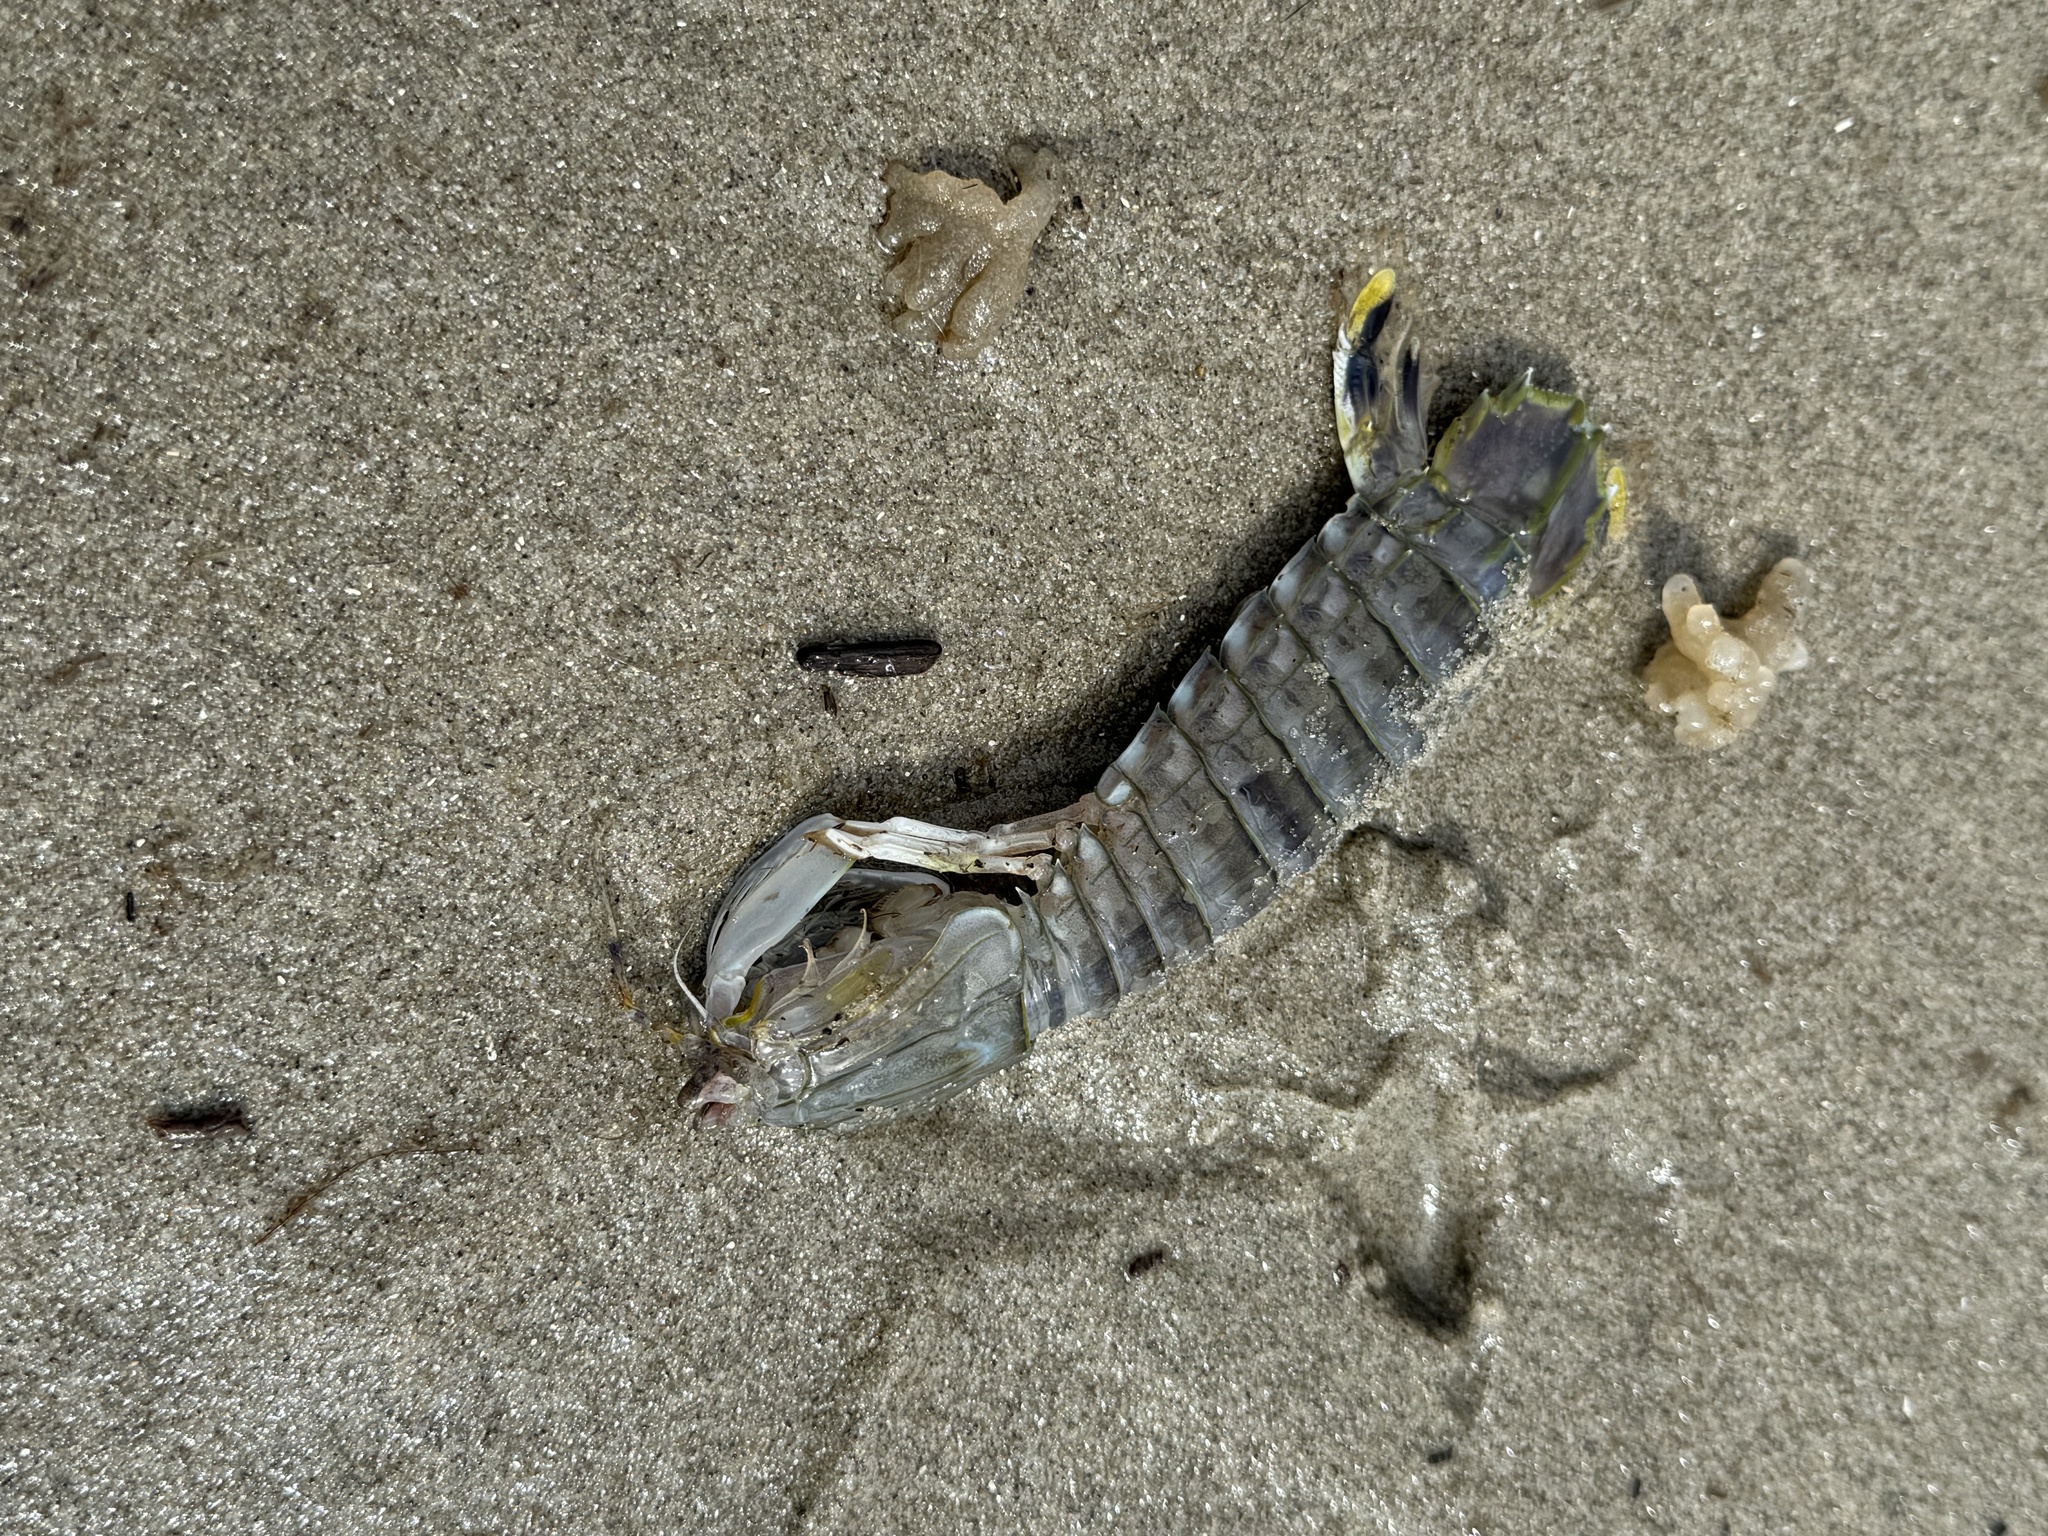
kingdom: Animalia
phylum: Arthropoda
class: Malacostraca
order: Stomatopoda
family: Squillidae
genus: Squilla
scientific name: Squilla empusa
